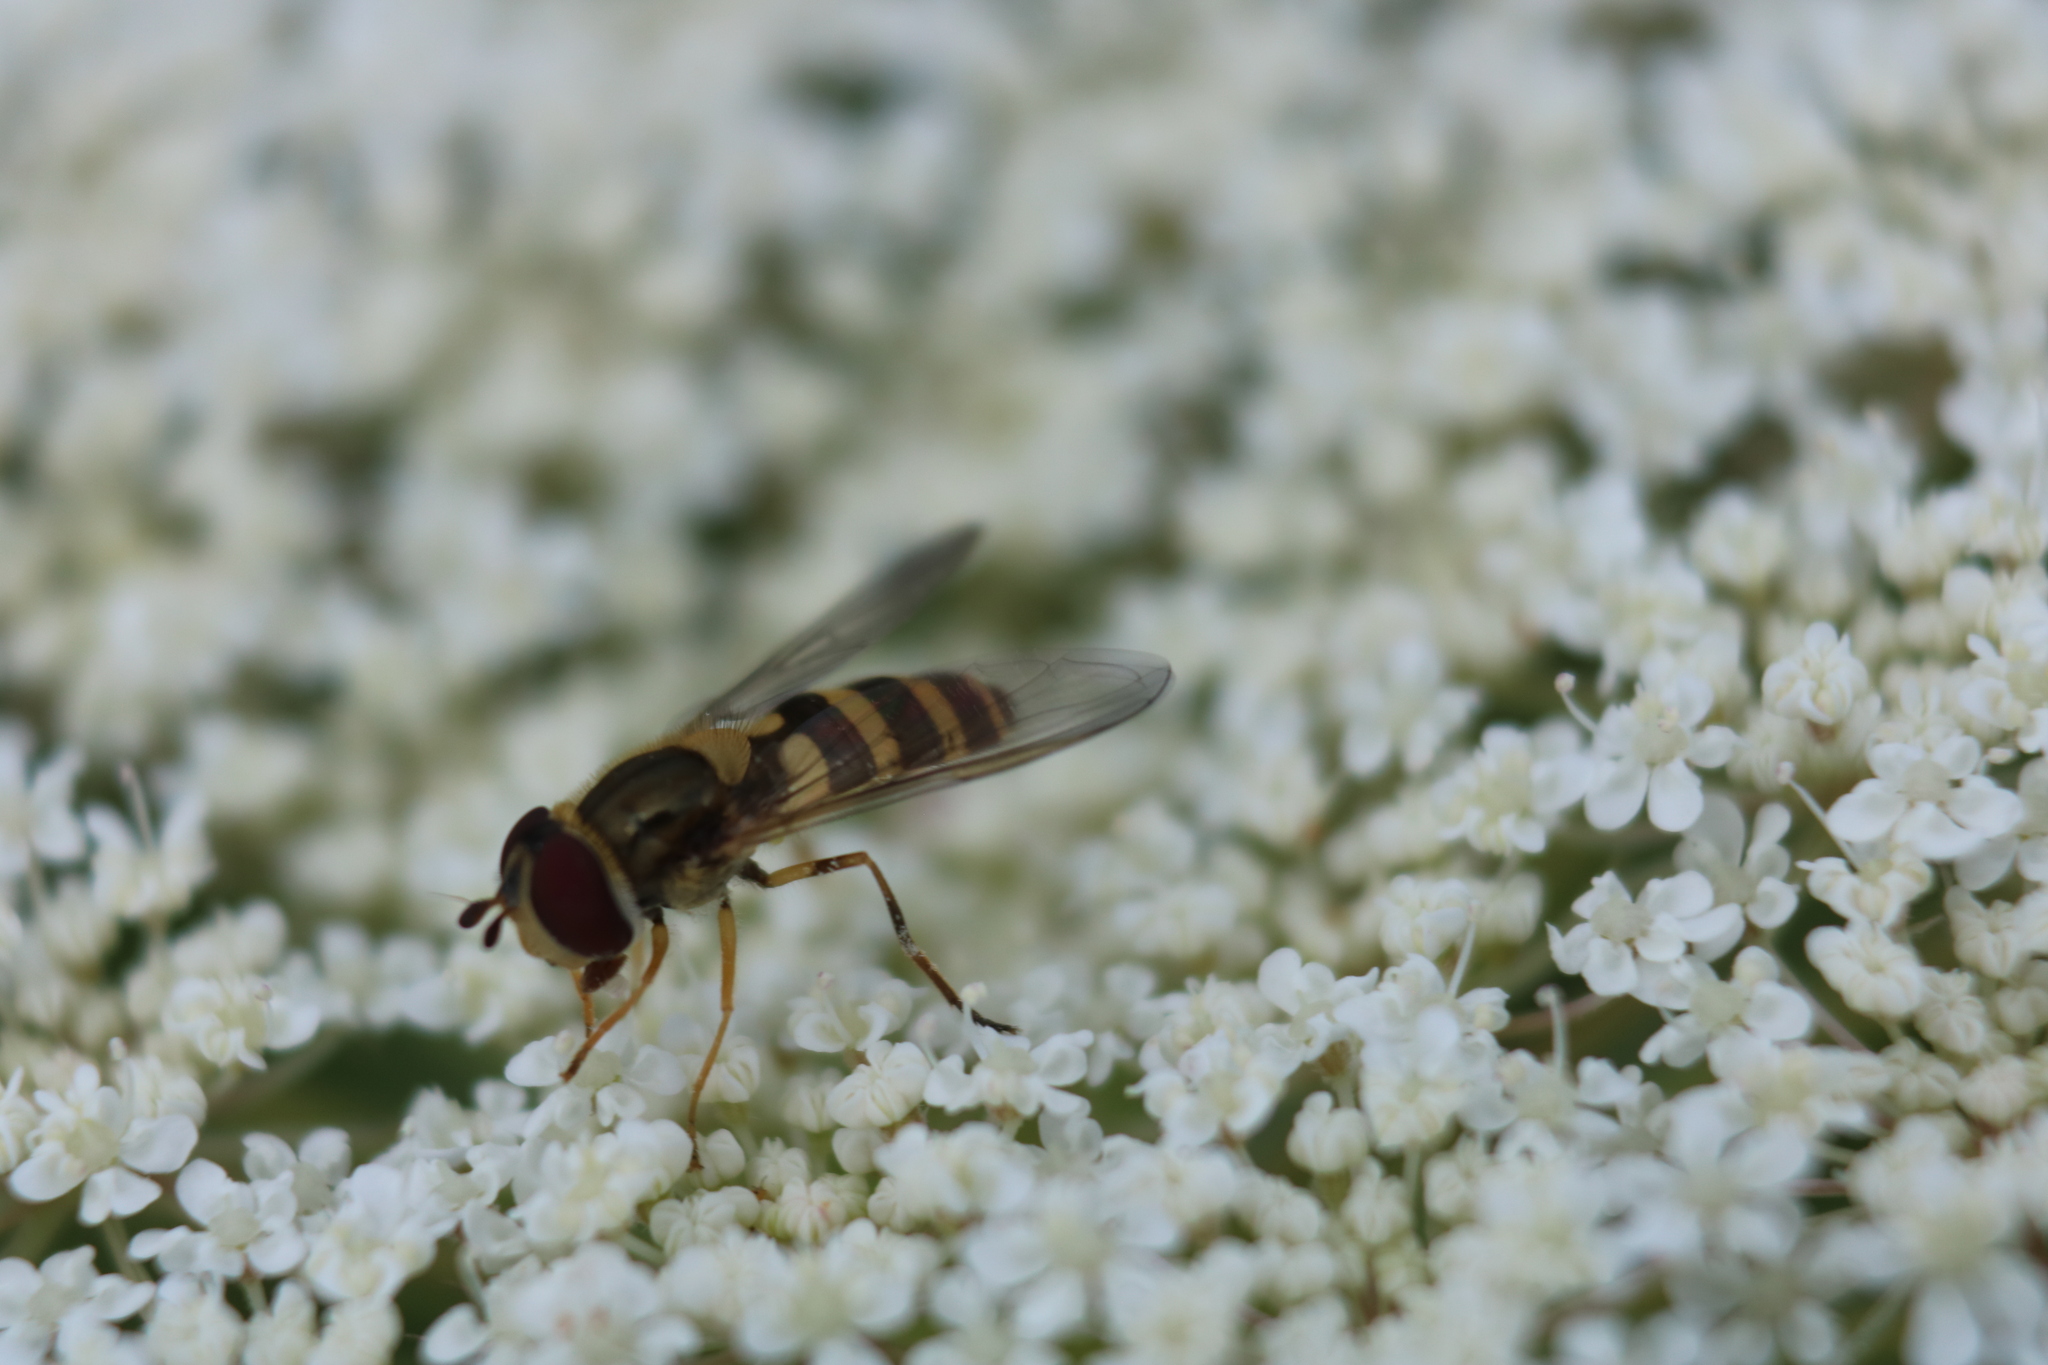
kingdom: Animalia
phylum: Arthropoda
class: Insecta
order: Diptera
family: Syrphidae
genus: Syrphus
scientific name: Syrphus rectus
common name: Yellow-legged flower fly
